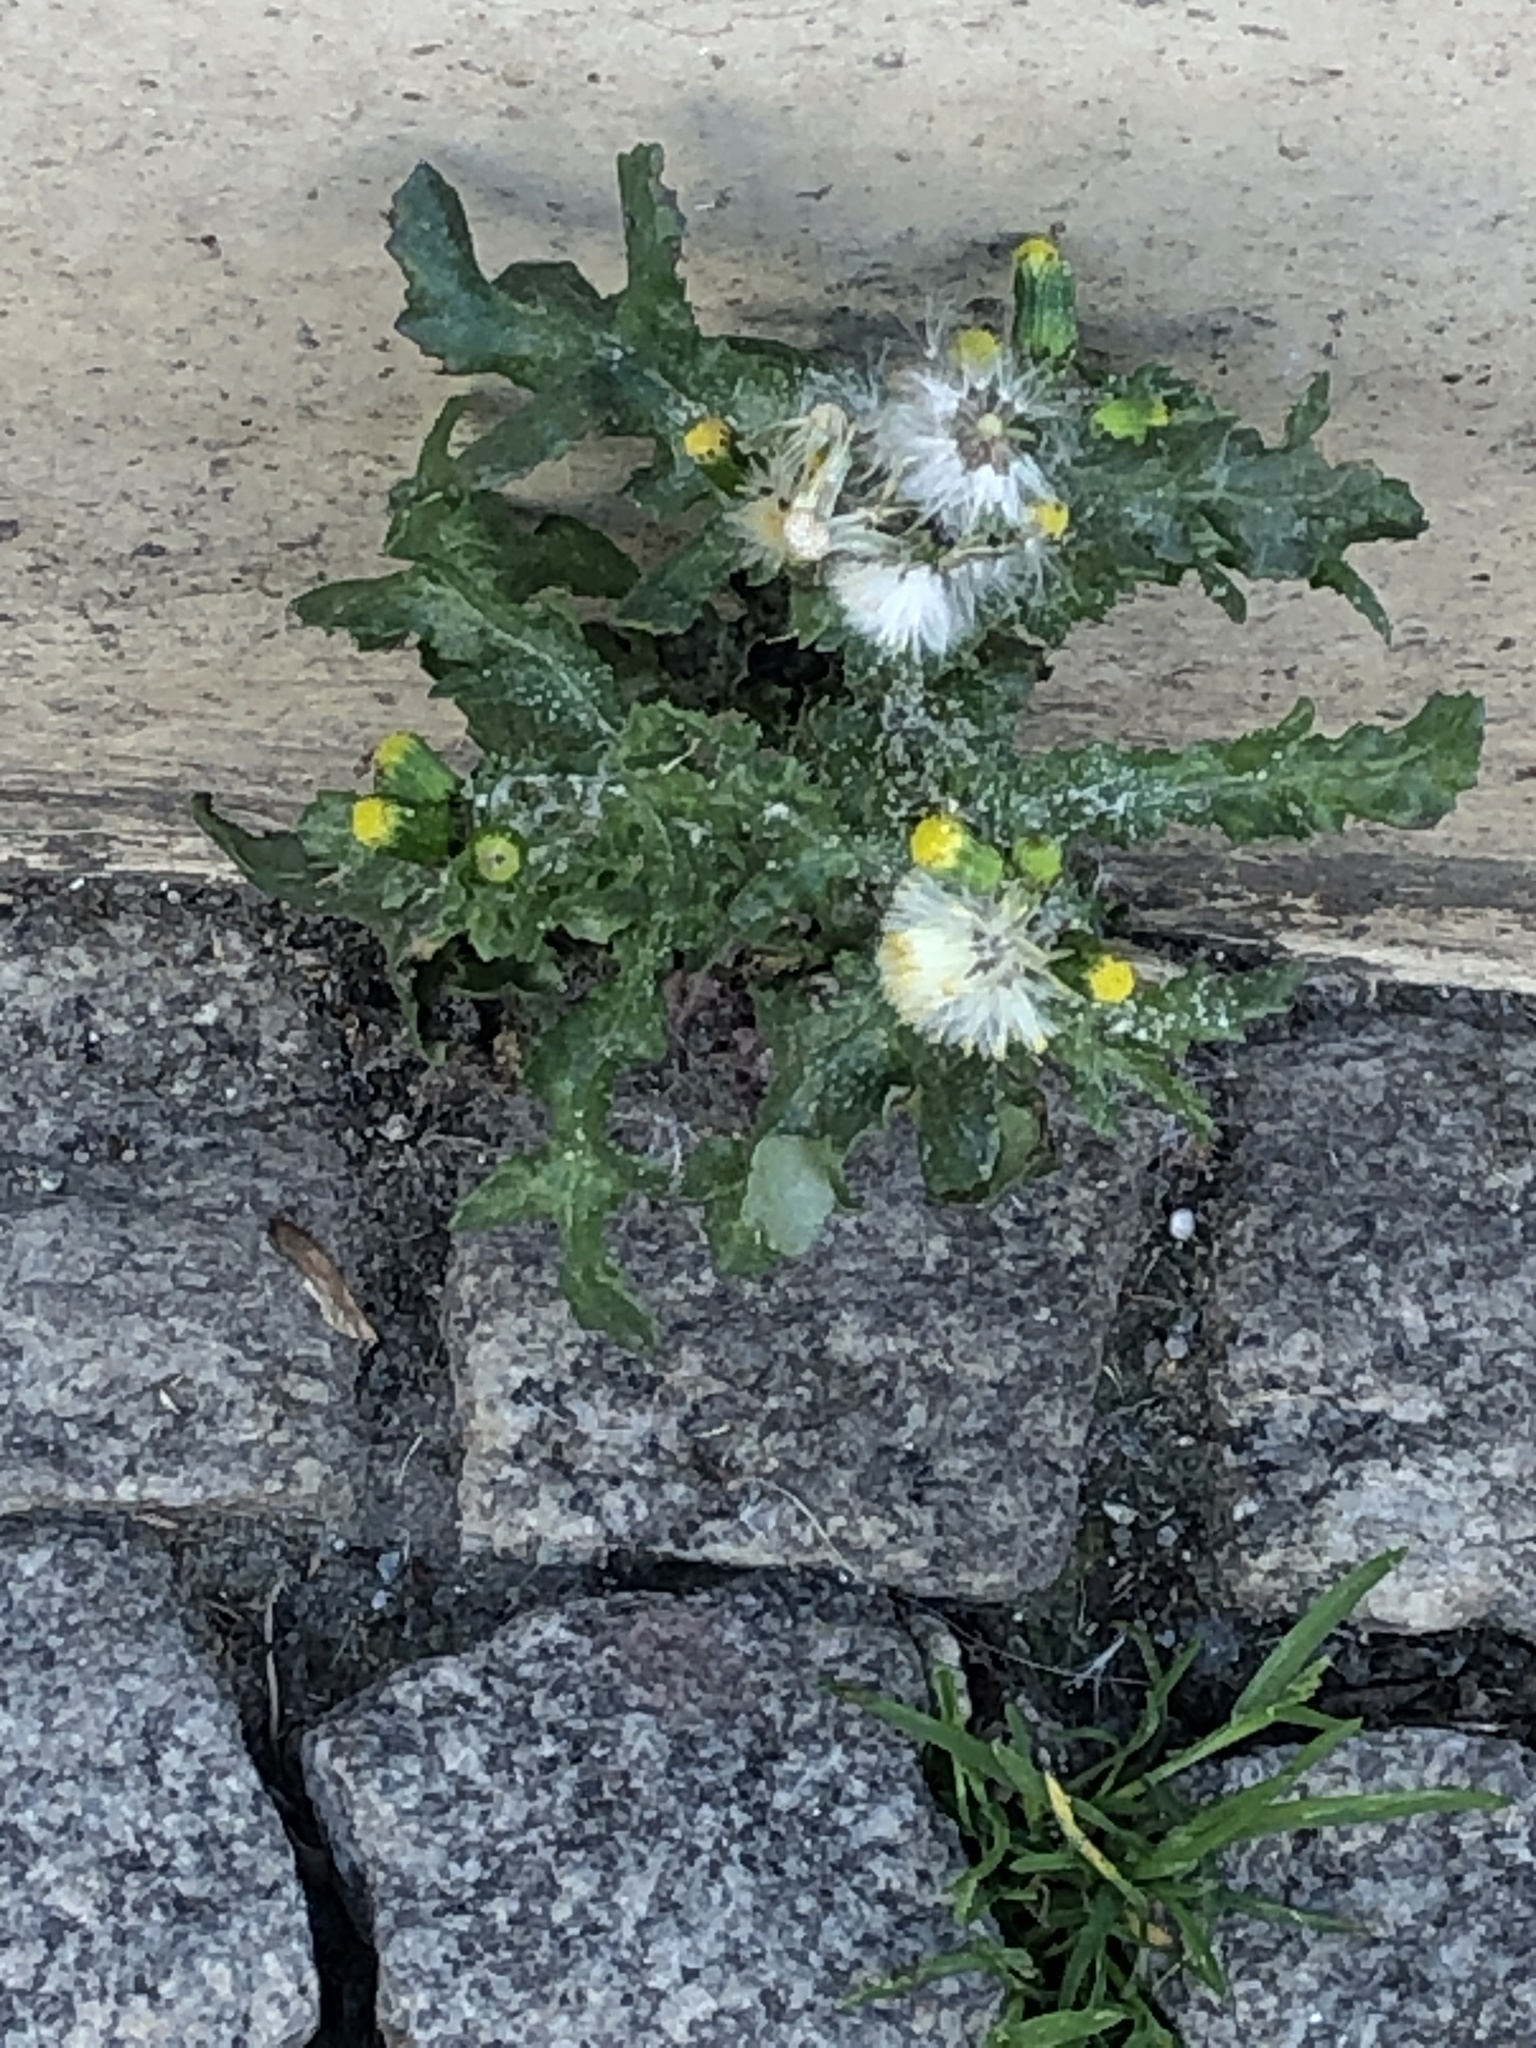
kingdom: Plantae
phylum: Tracheophyta
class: Magnoliopsida
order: Asterales
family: Asteraceae
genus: Senecio
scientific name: Senecio vulgaris
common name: Old-man-in-the-spring
